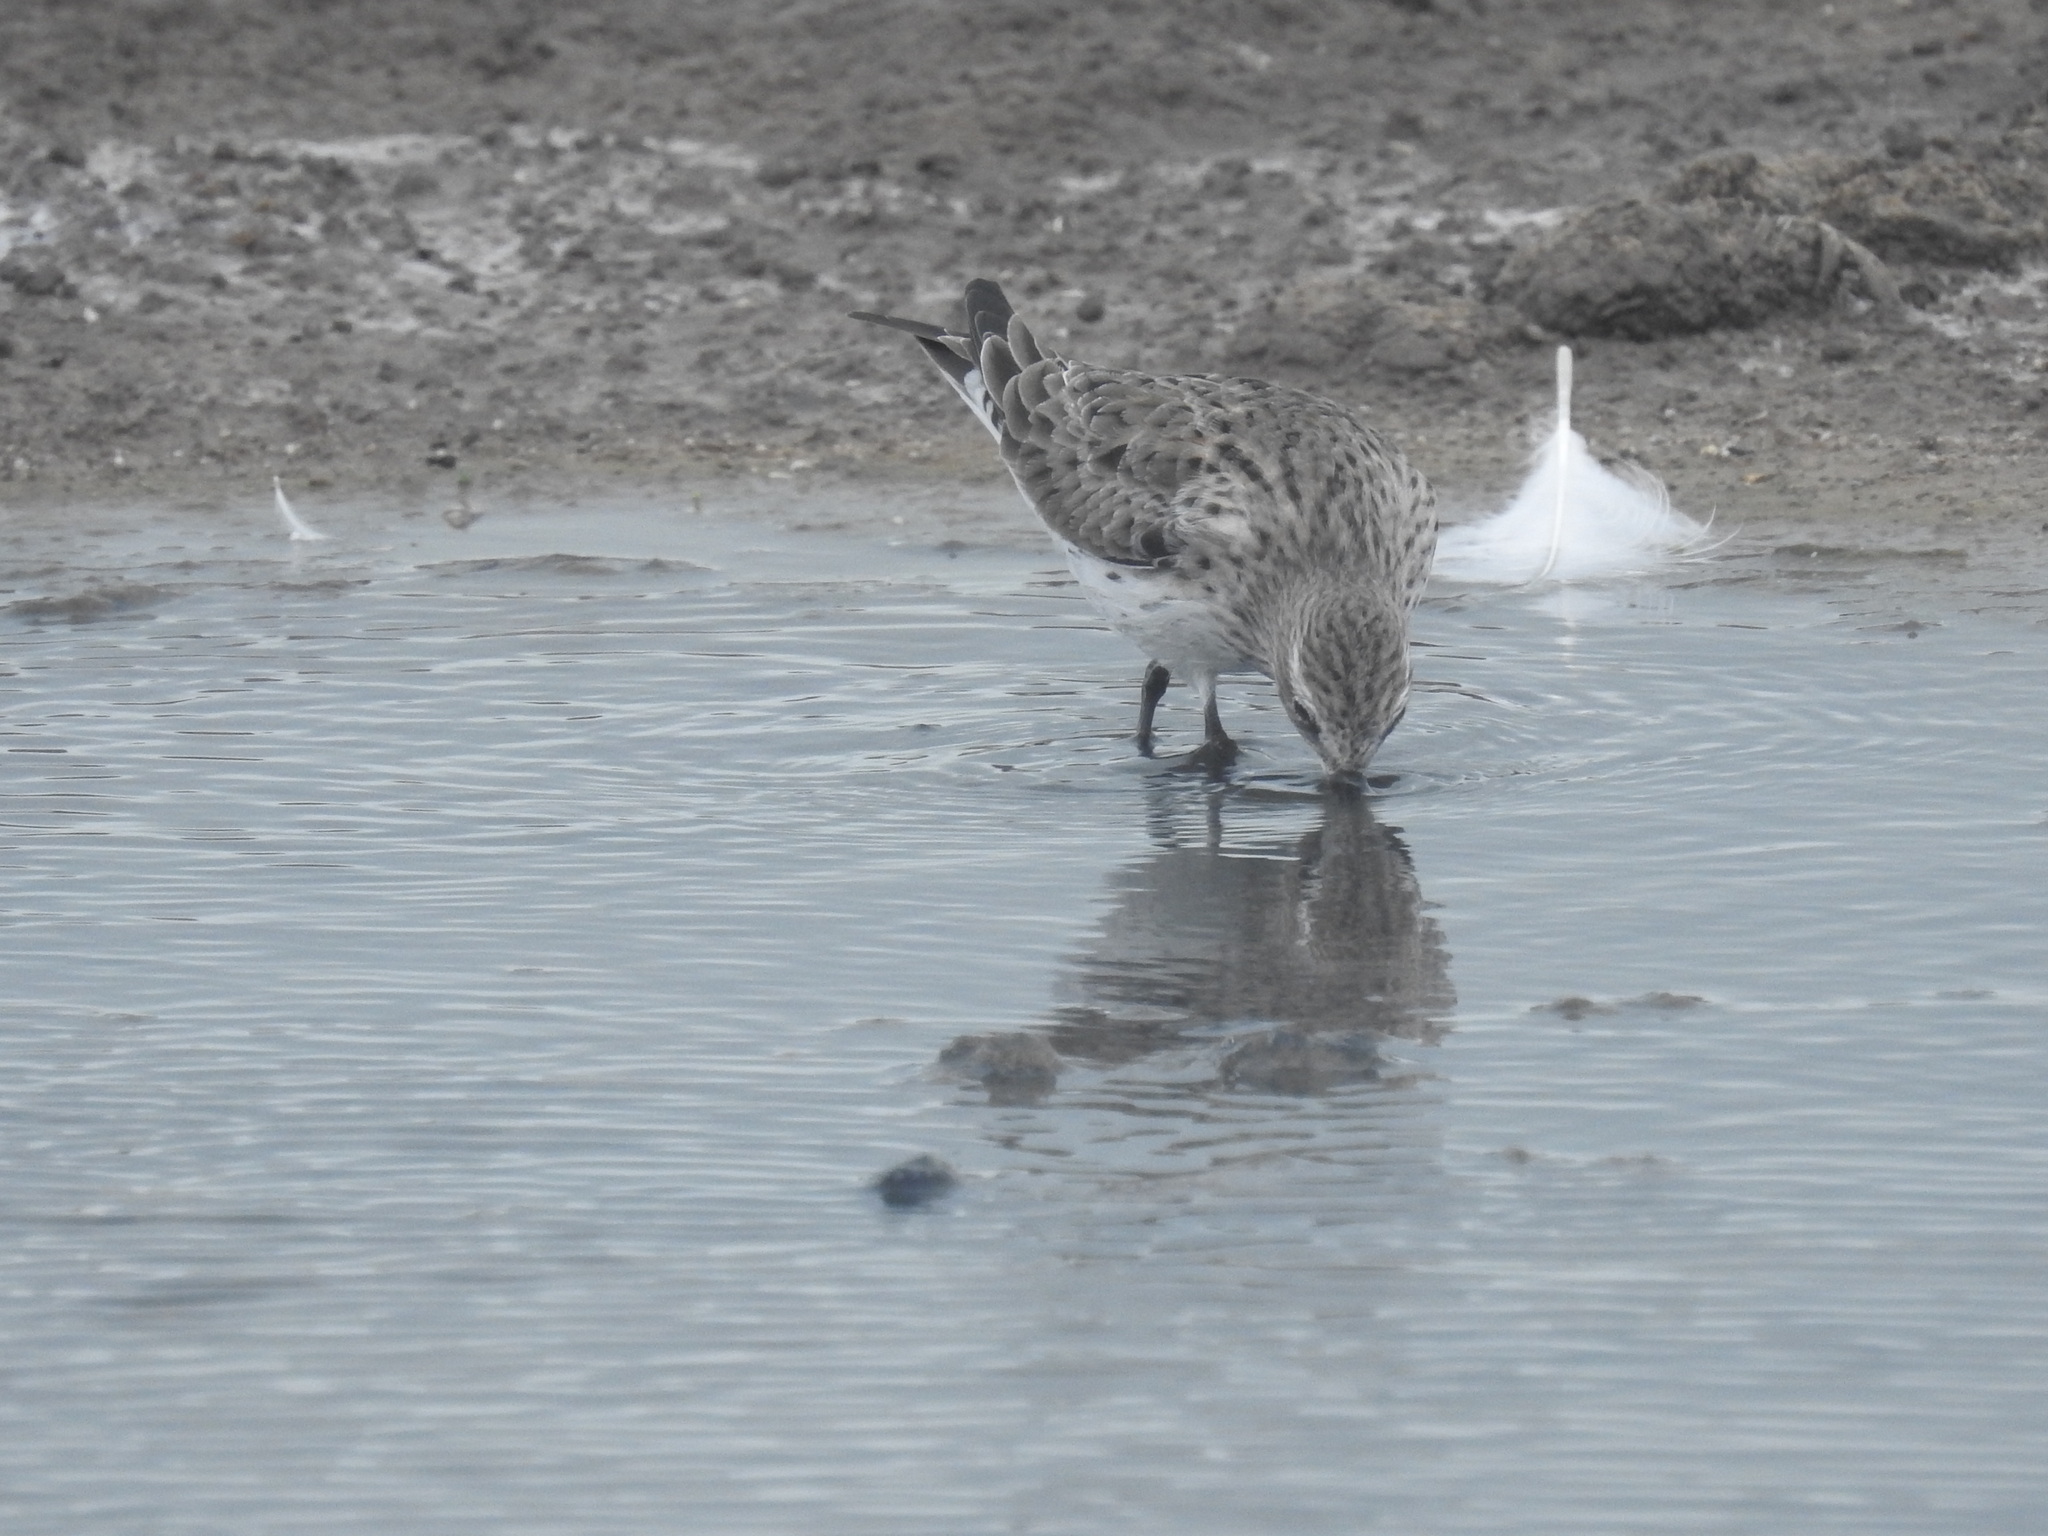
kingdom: Animalia
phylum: Chordata
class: Aves
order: Charadriiformes
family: Scolopacidae
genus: Calidris
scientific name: Calidris fuscicollis
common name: White-rumped sandpiper
